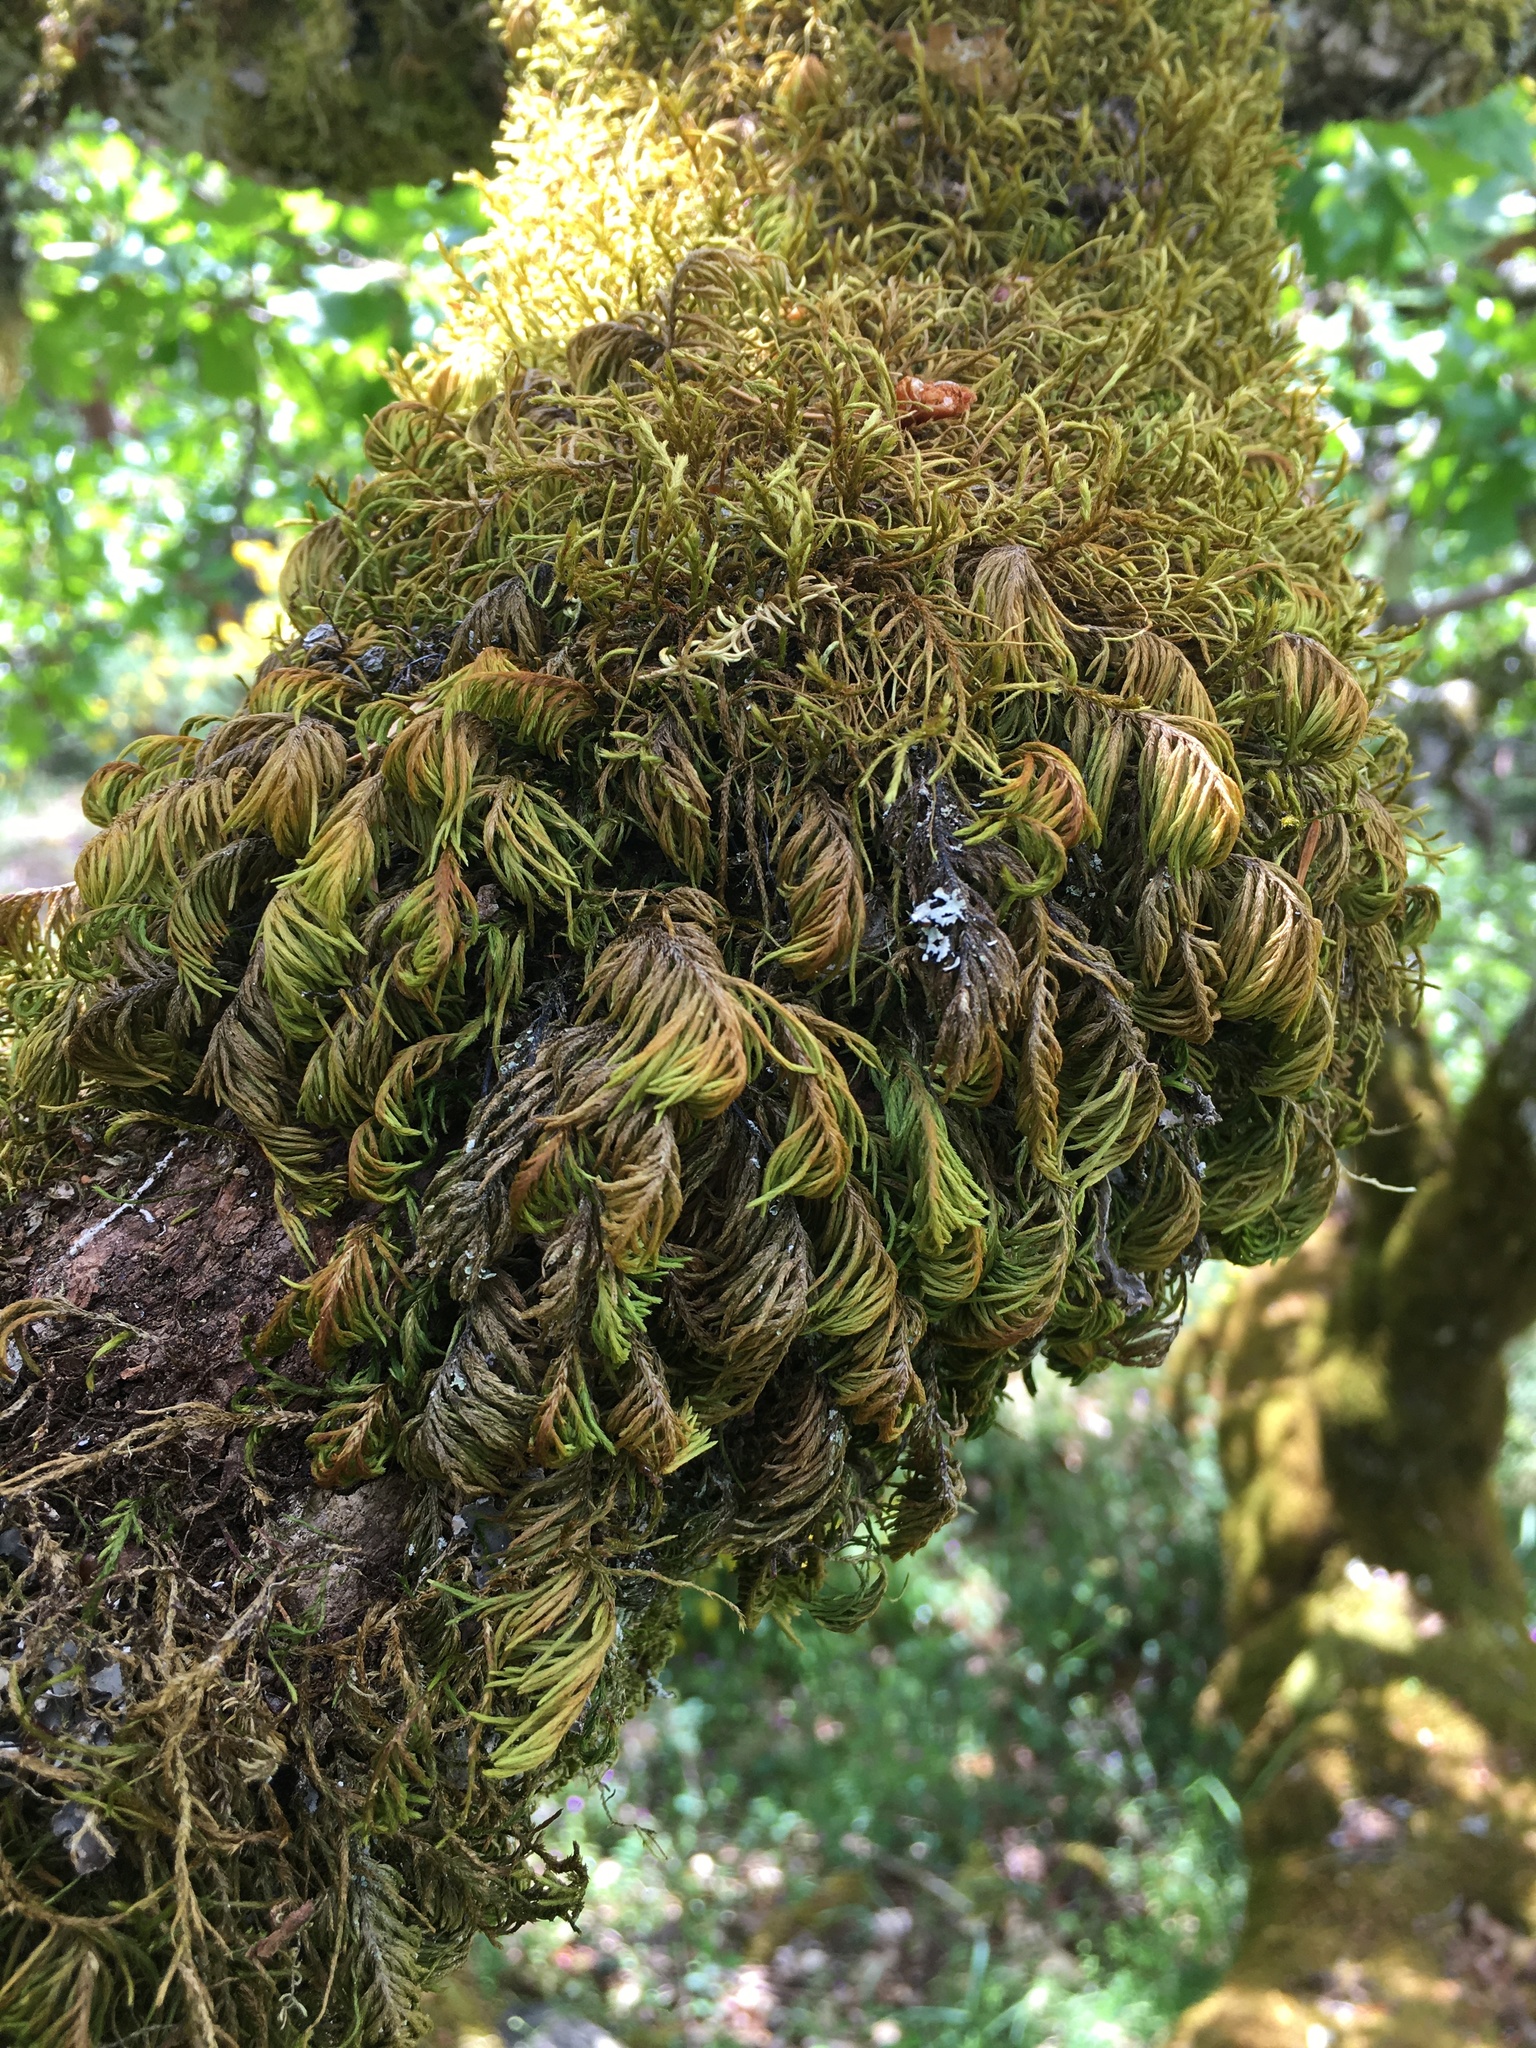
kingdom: Plantae
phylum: Bryophyta
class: Bryopsida
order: Hypnales
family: Cryphaeaceae
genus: Dendroalsia
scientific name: Dendroalsia abietina
